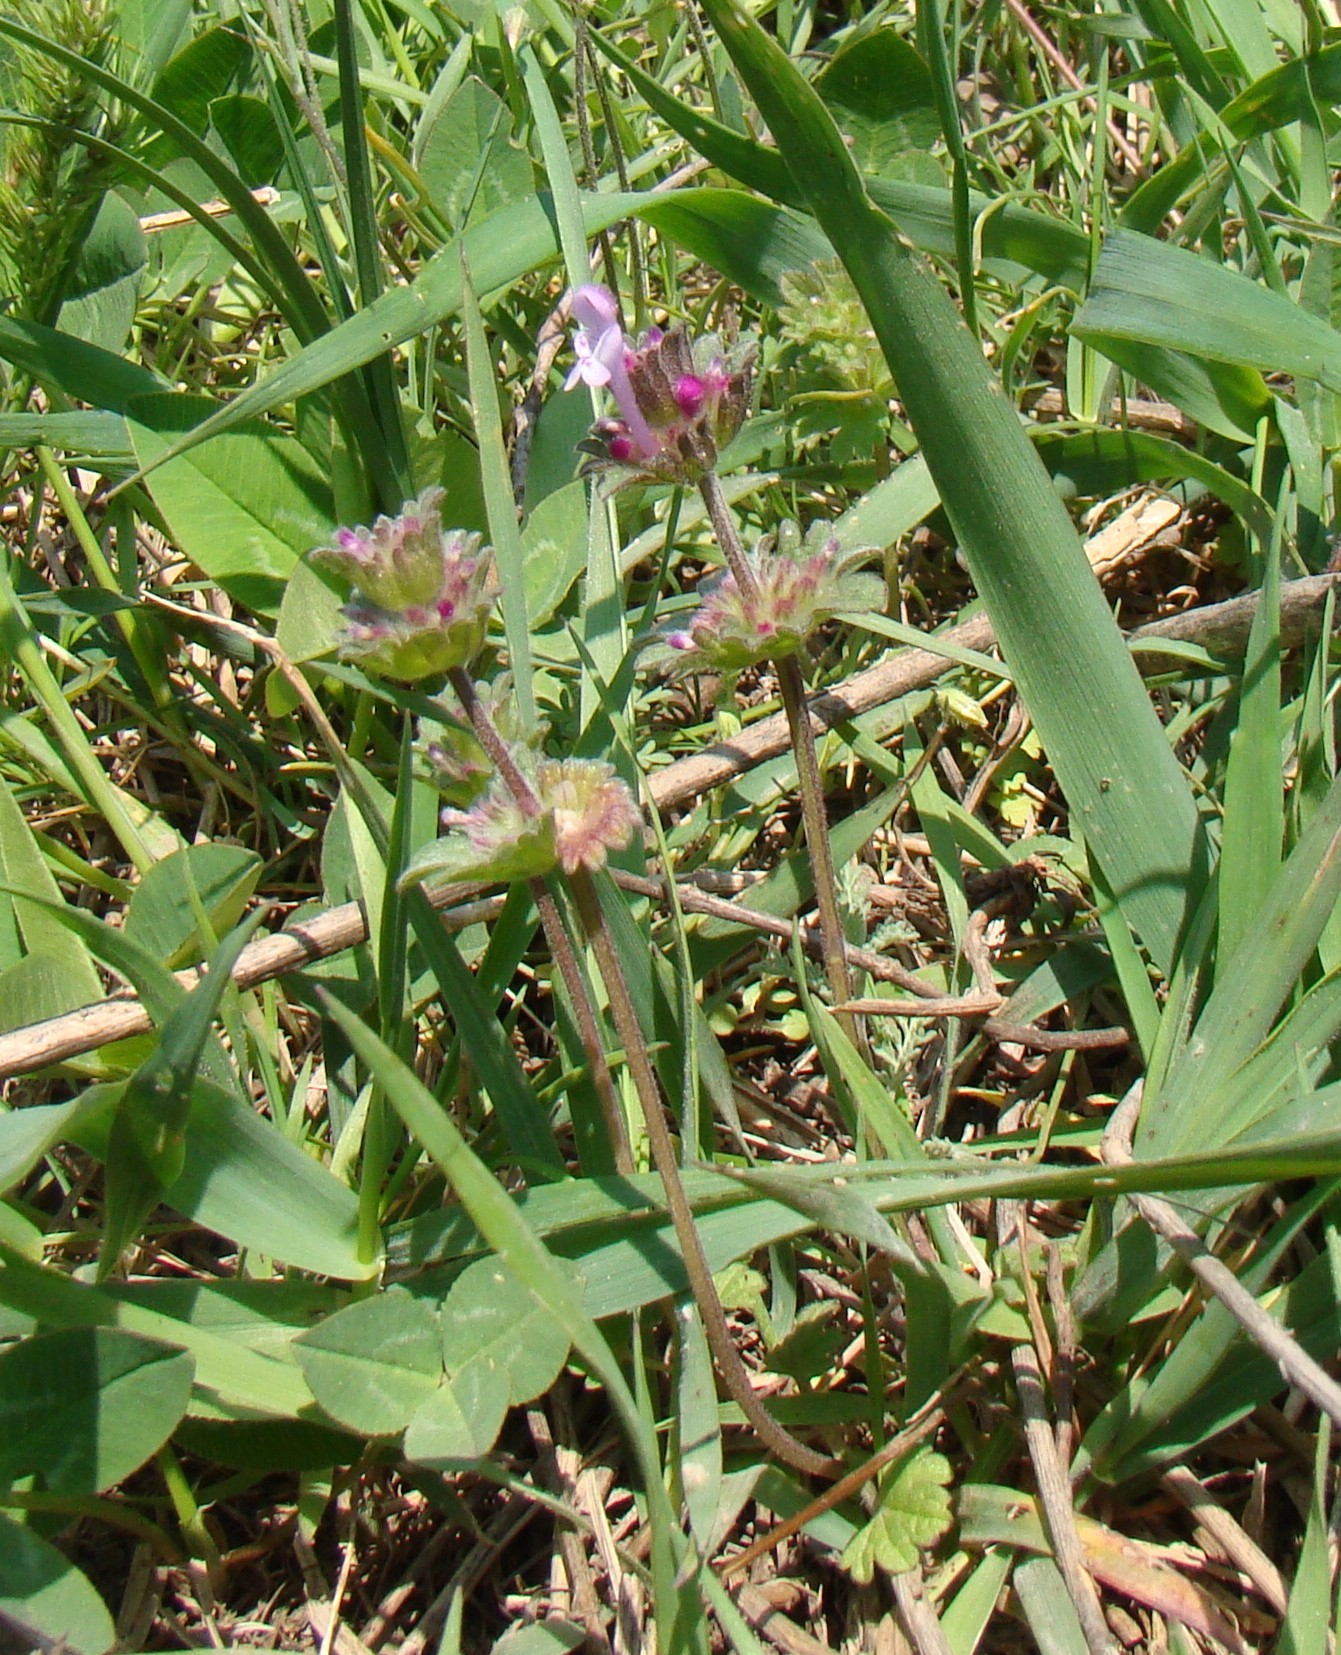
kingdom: Plantae
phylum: Tracheophyta
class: Magnoliopsida
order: Lamiales
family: Lamiaceae
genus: Lamium
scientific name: Lamium amplexicaule
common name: Henbit dead-nettle
